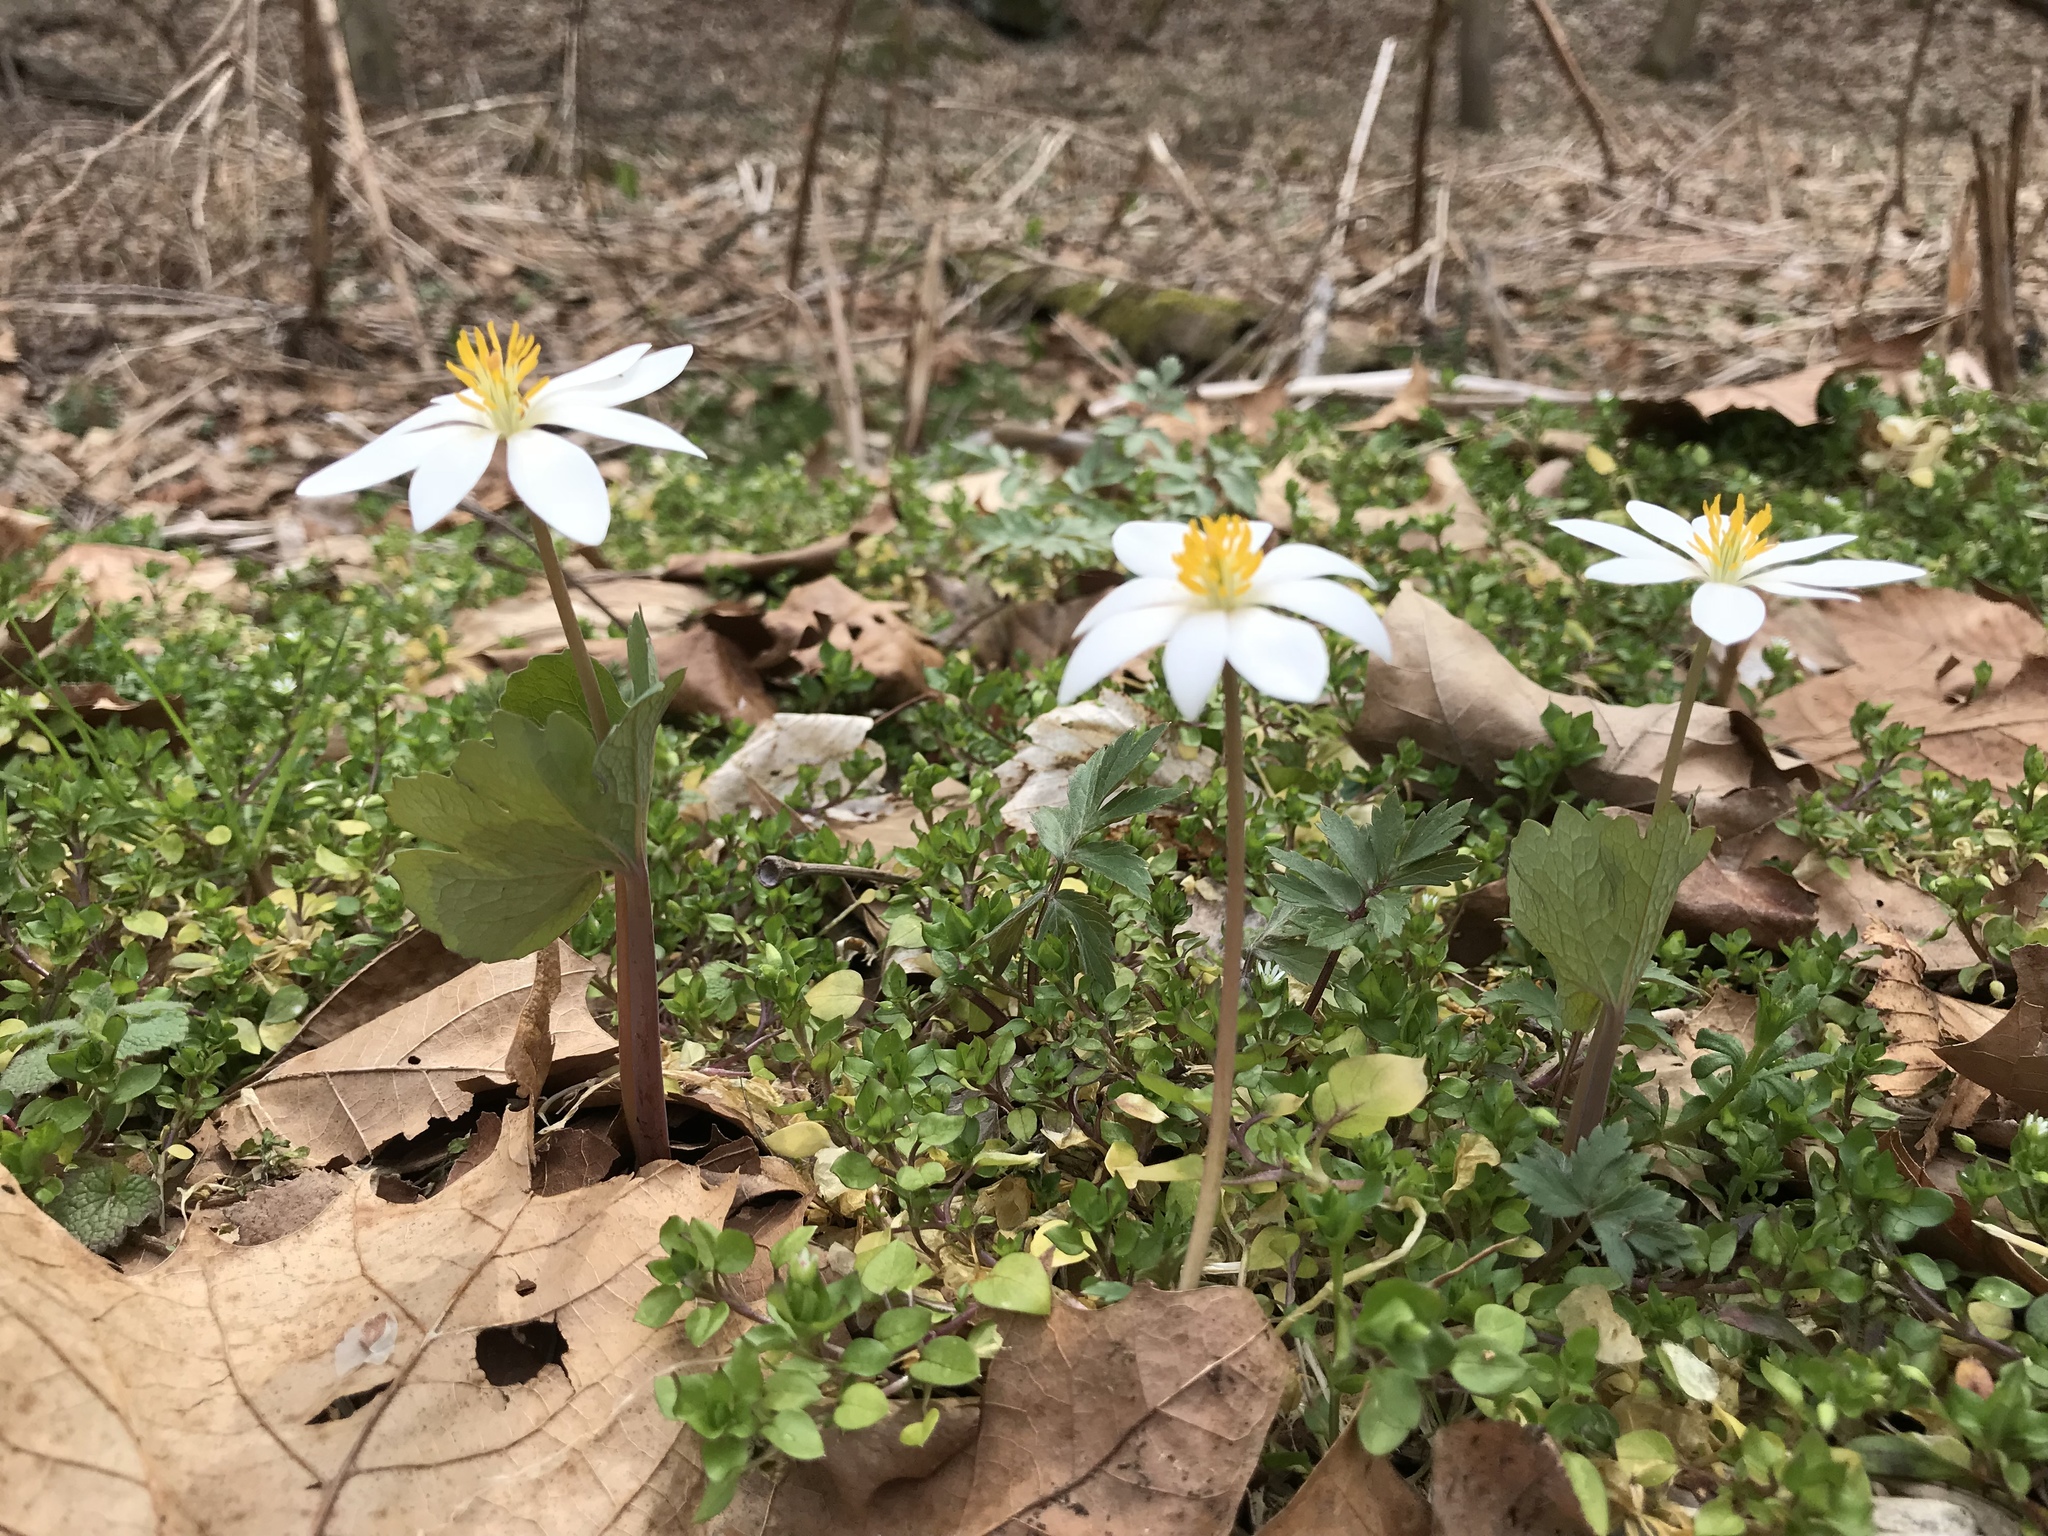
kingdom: Plantae
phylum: Tracheophyta
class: Magnoliopsida
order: Ranunculales
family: Papaveraceae
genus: Sanguinaria
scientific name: Sanguinaria canadensis
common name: Bloodroot
